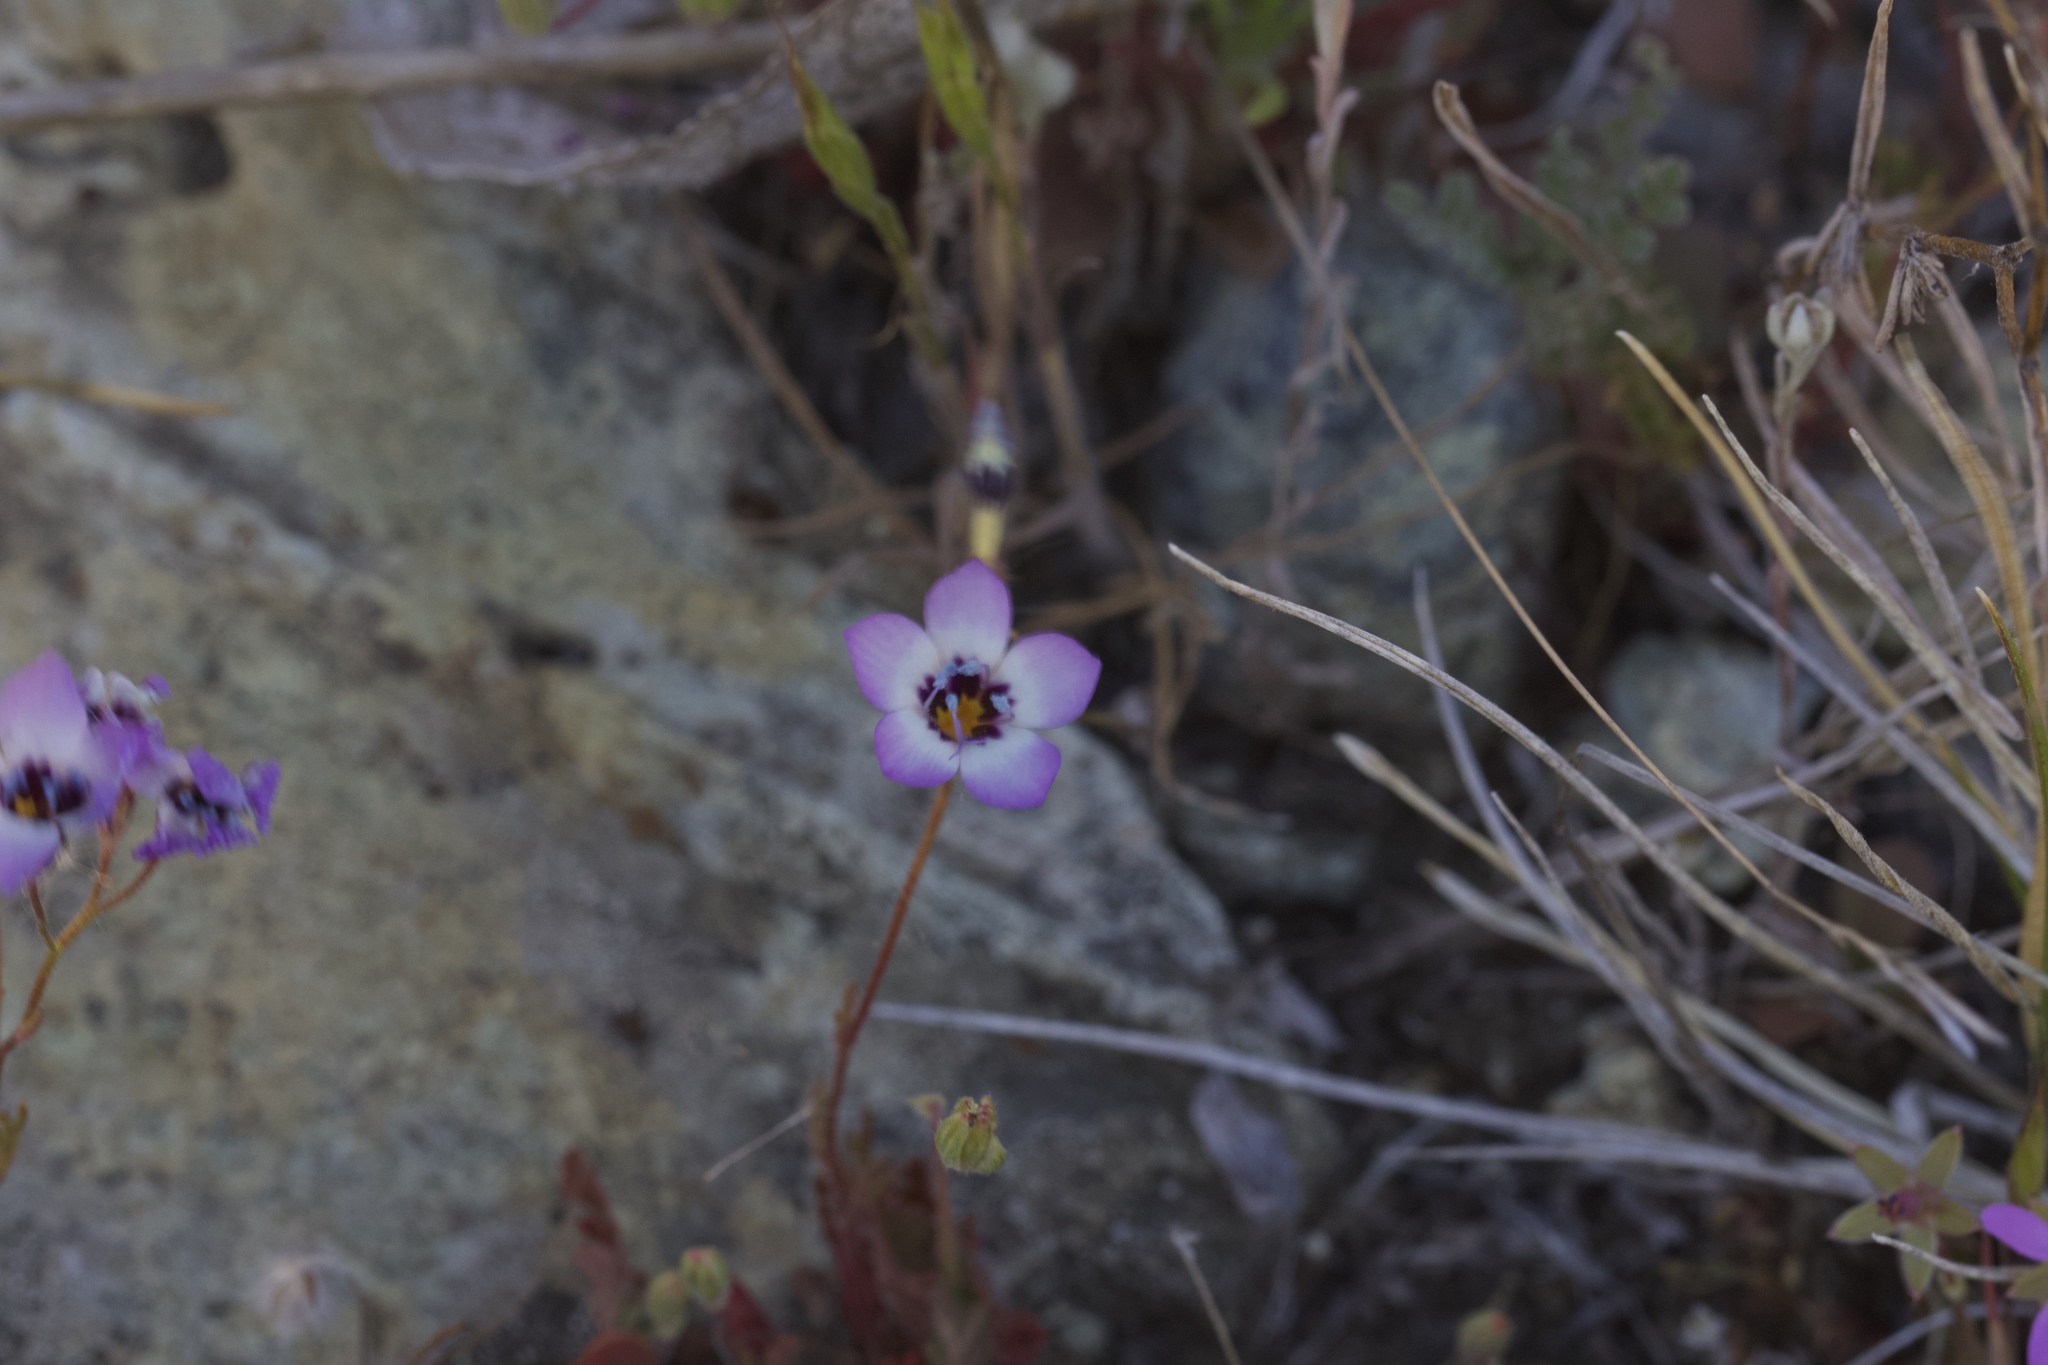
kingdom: Plantae
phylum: Tracheophyta
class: Magnoliopsida
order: Ericales
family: Polemoniaceae
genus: Gilia
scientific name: Gilia tricolor
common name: Bird's-eyes
